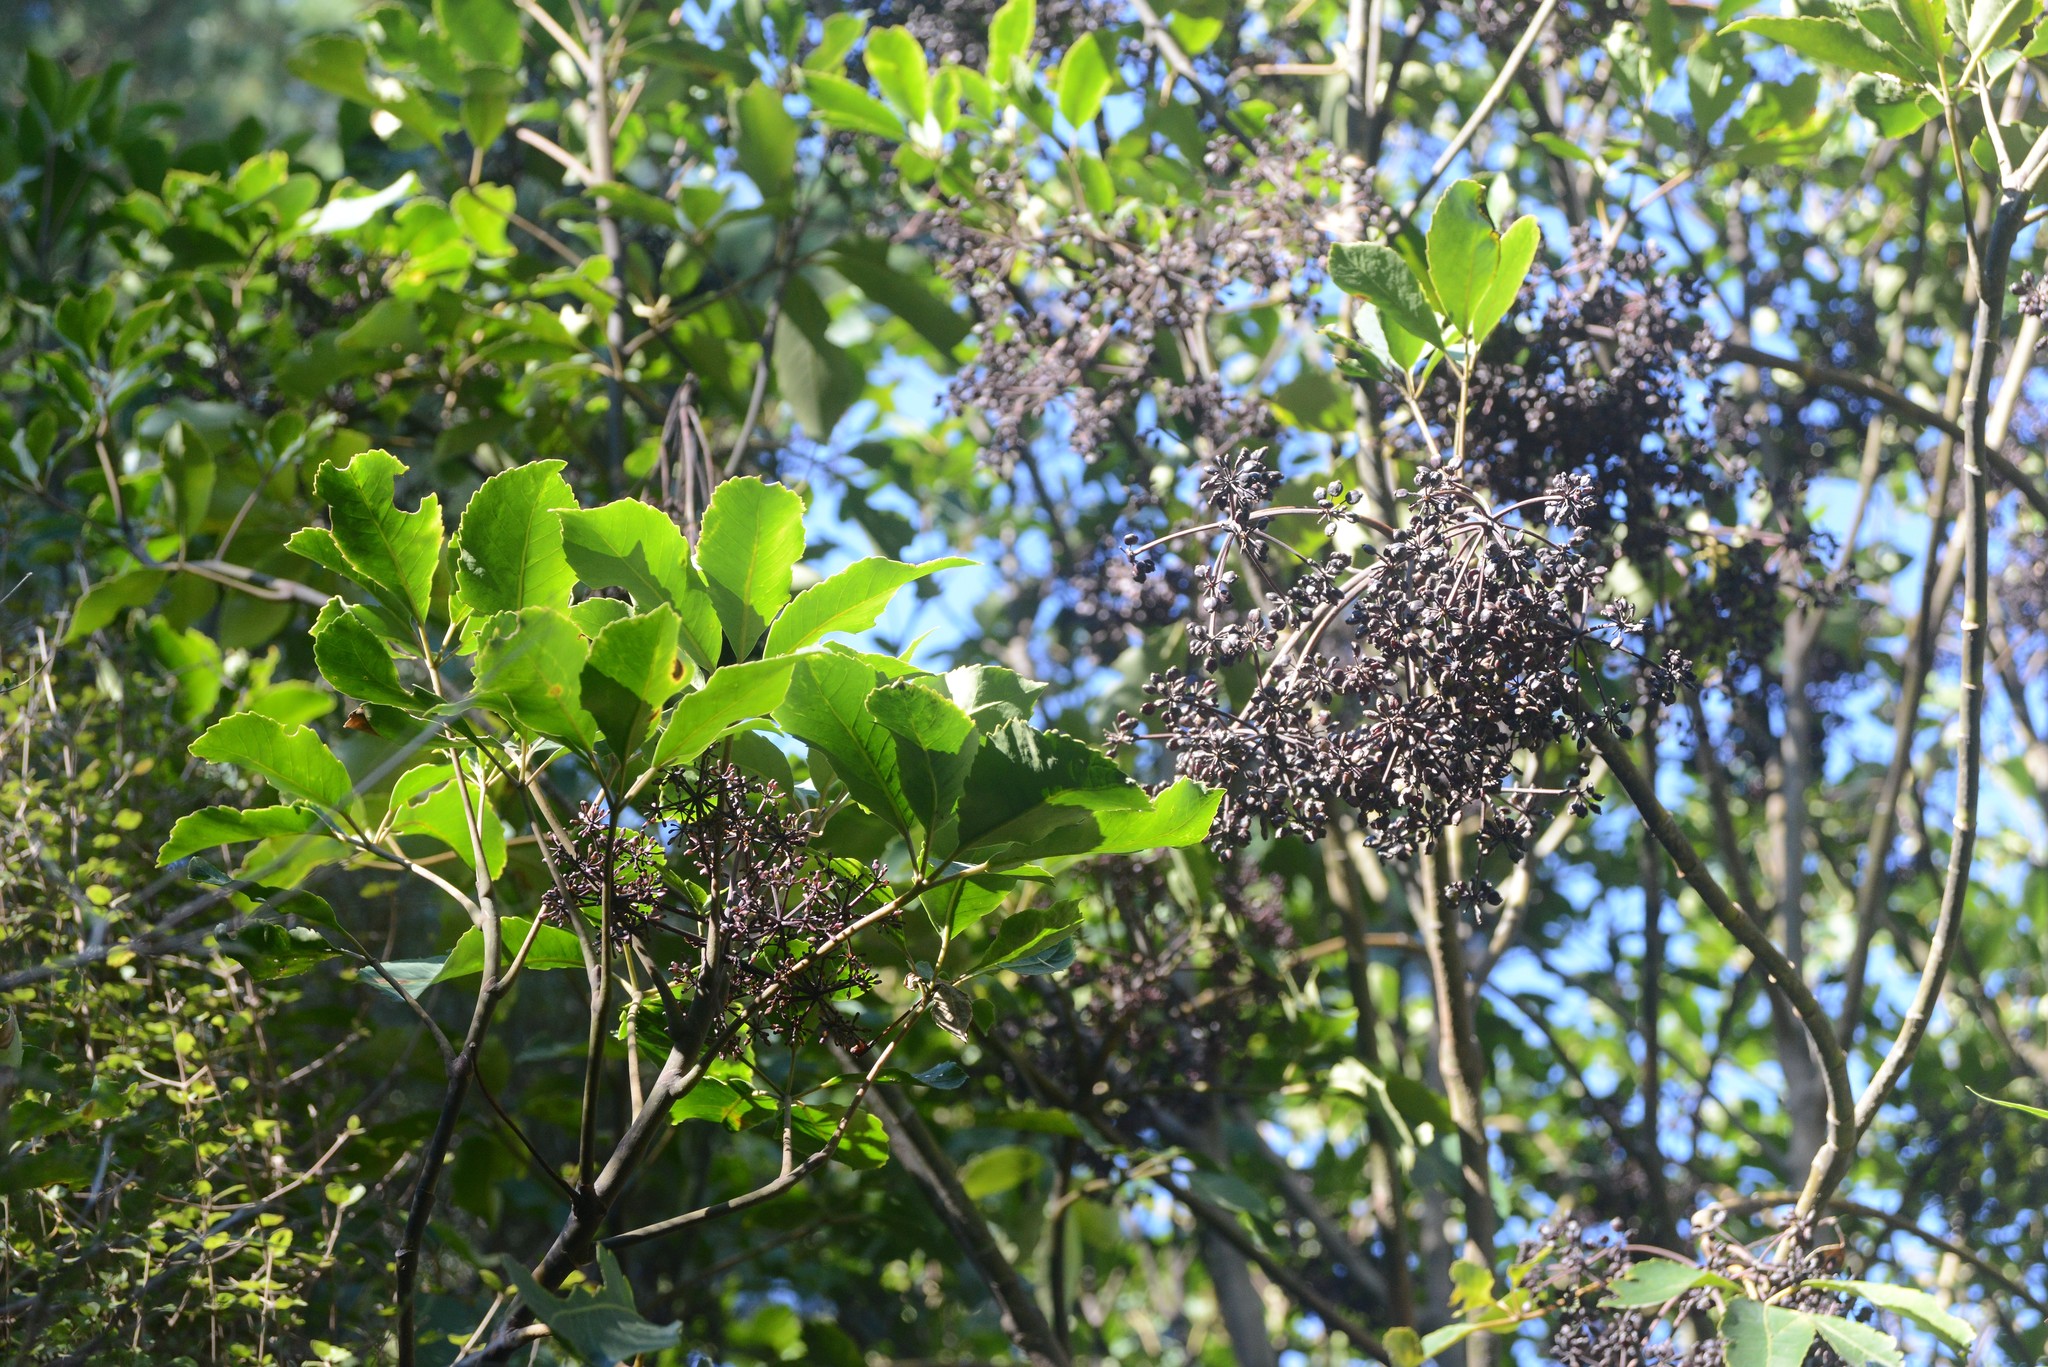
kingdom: Plantae
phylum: Tracheophyta
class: Magnoliopsida
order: Apiales
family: Araliaceae
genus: Neopanax
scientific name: Neopanax arboreus
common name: Five-fingers
